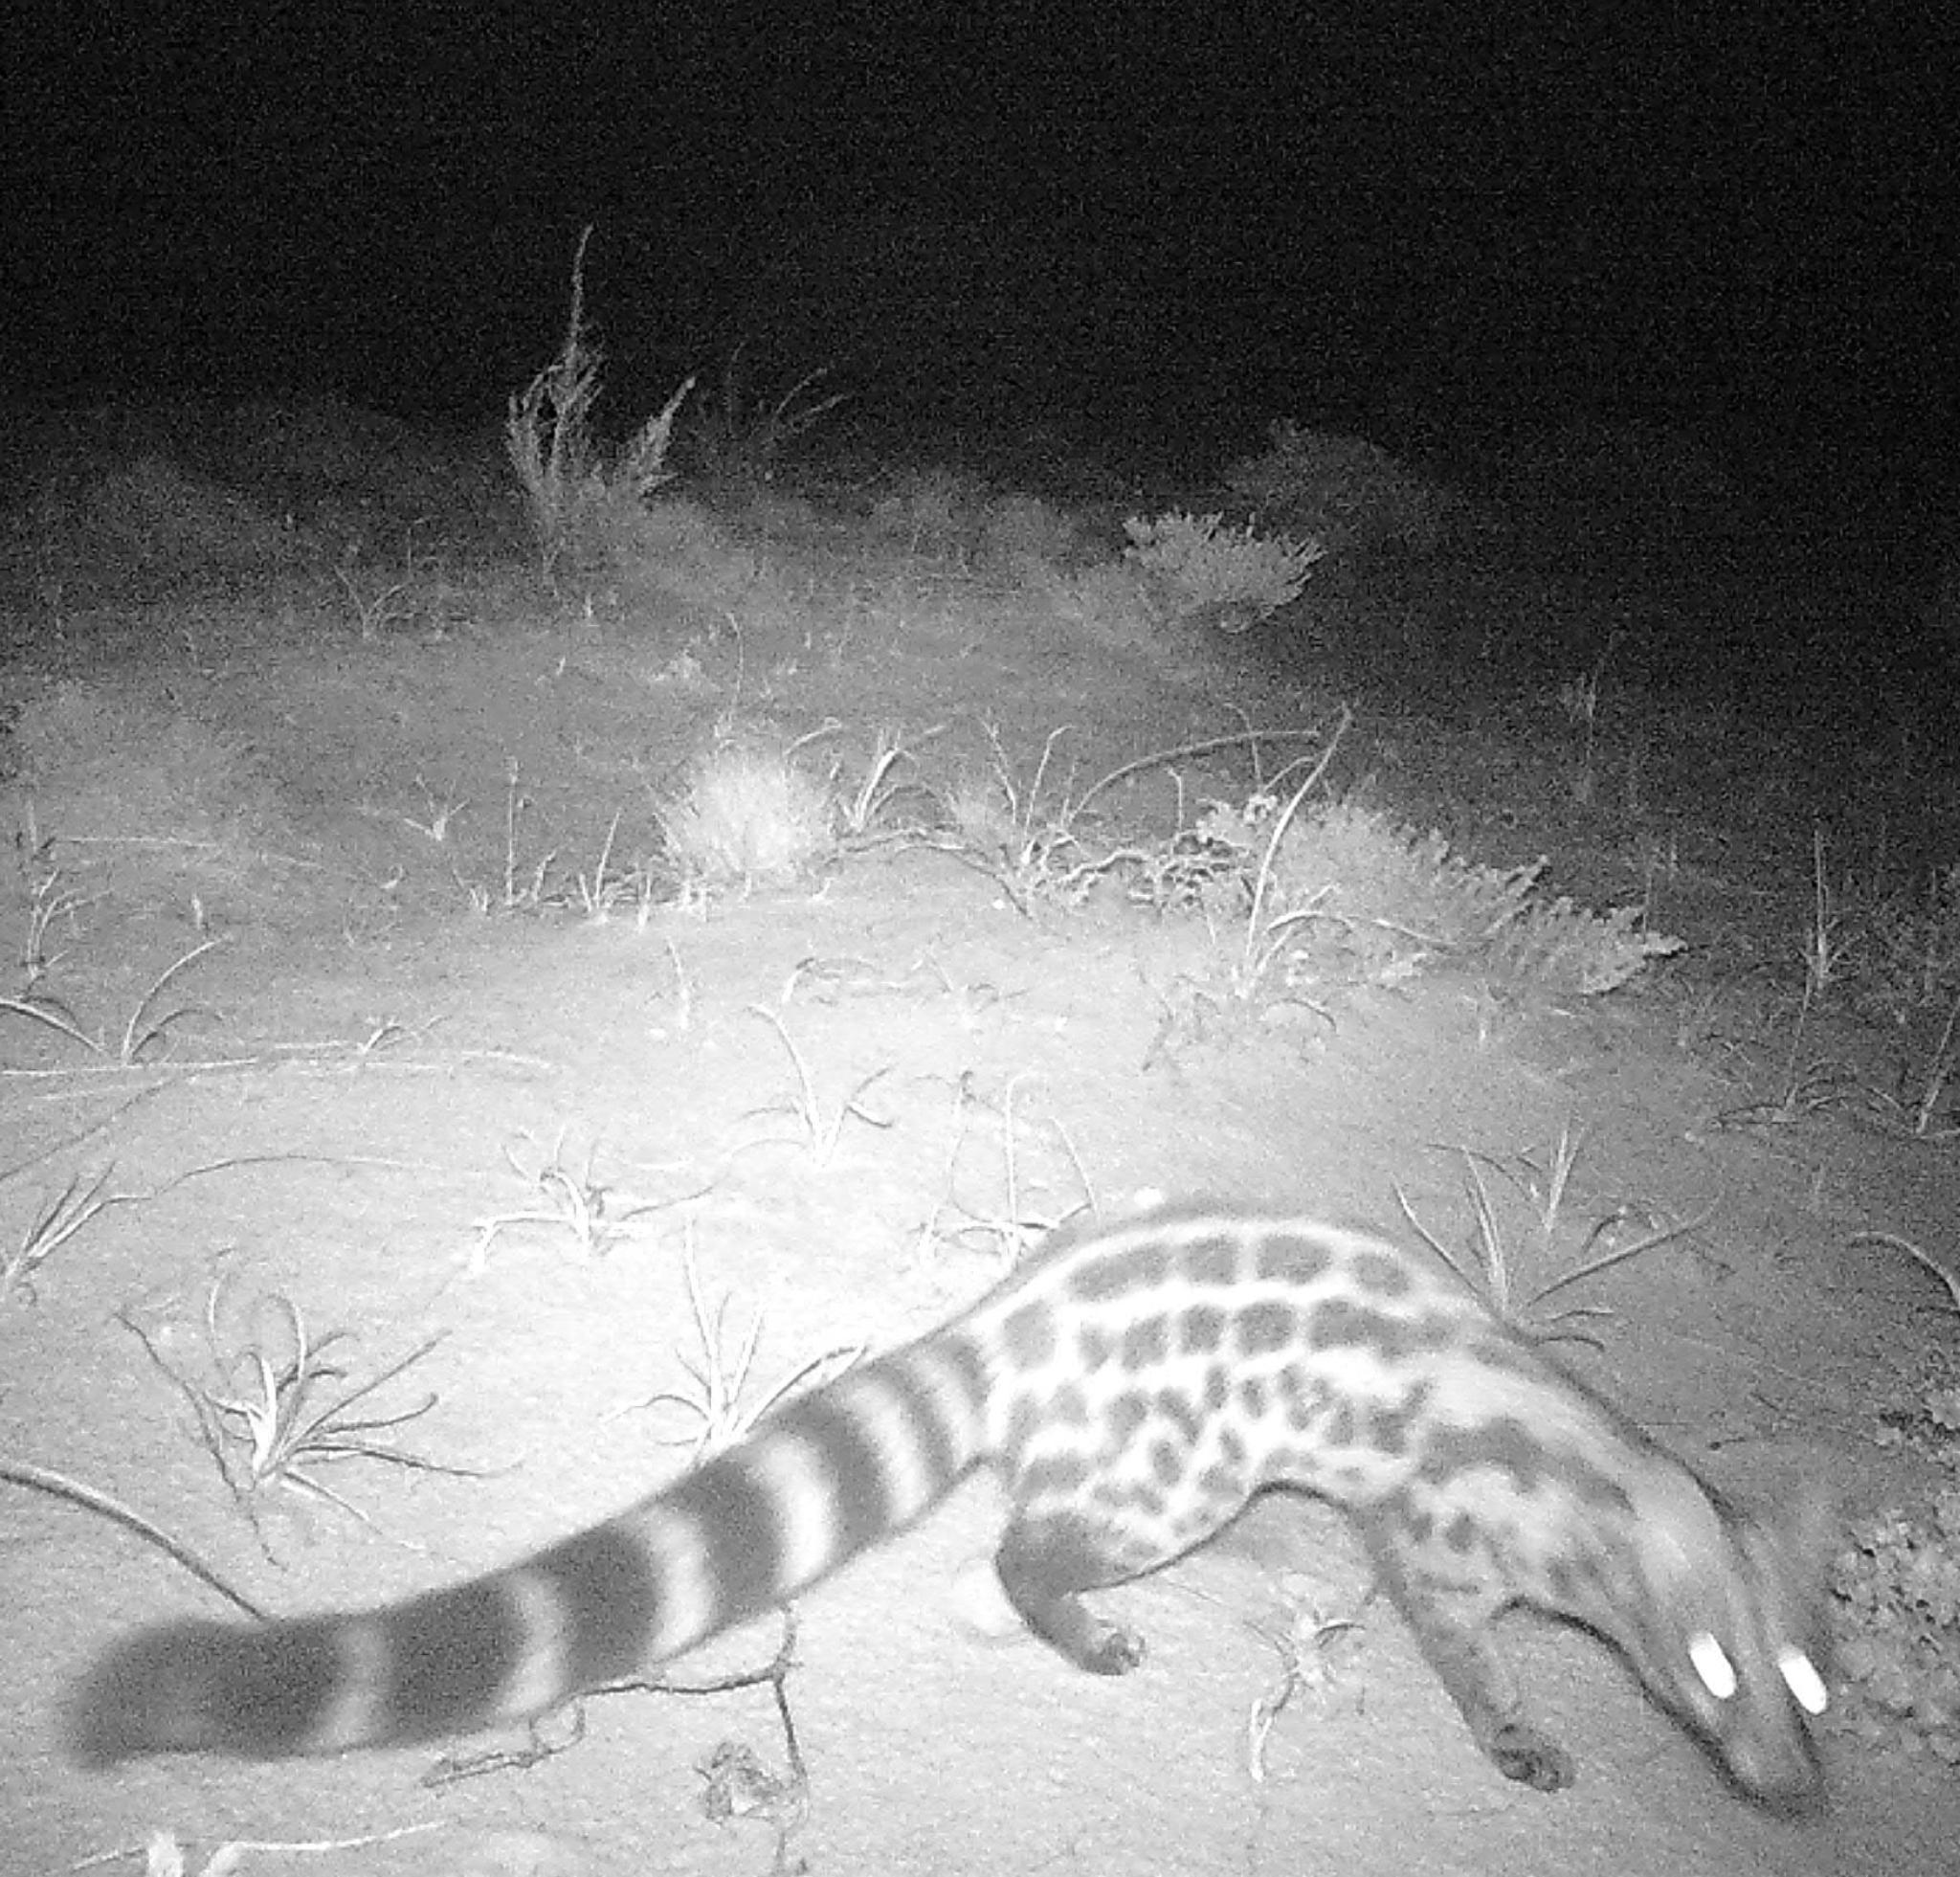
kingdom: Animalia
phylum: Chordata
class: Mammalia
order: Carnivora
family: Viverridae
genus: Genetta
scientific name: Genetta tigrina
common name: Cape genet
